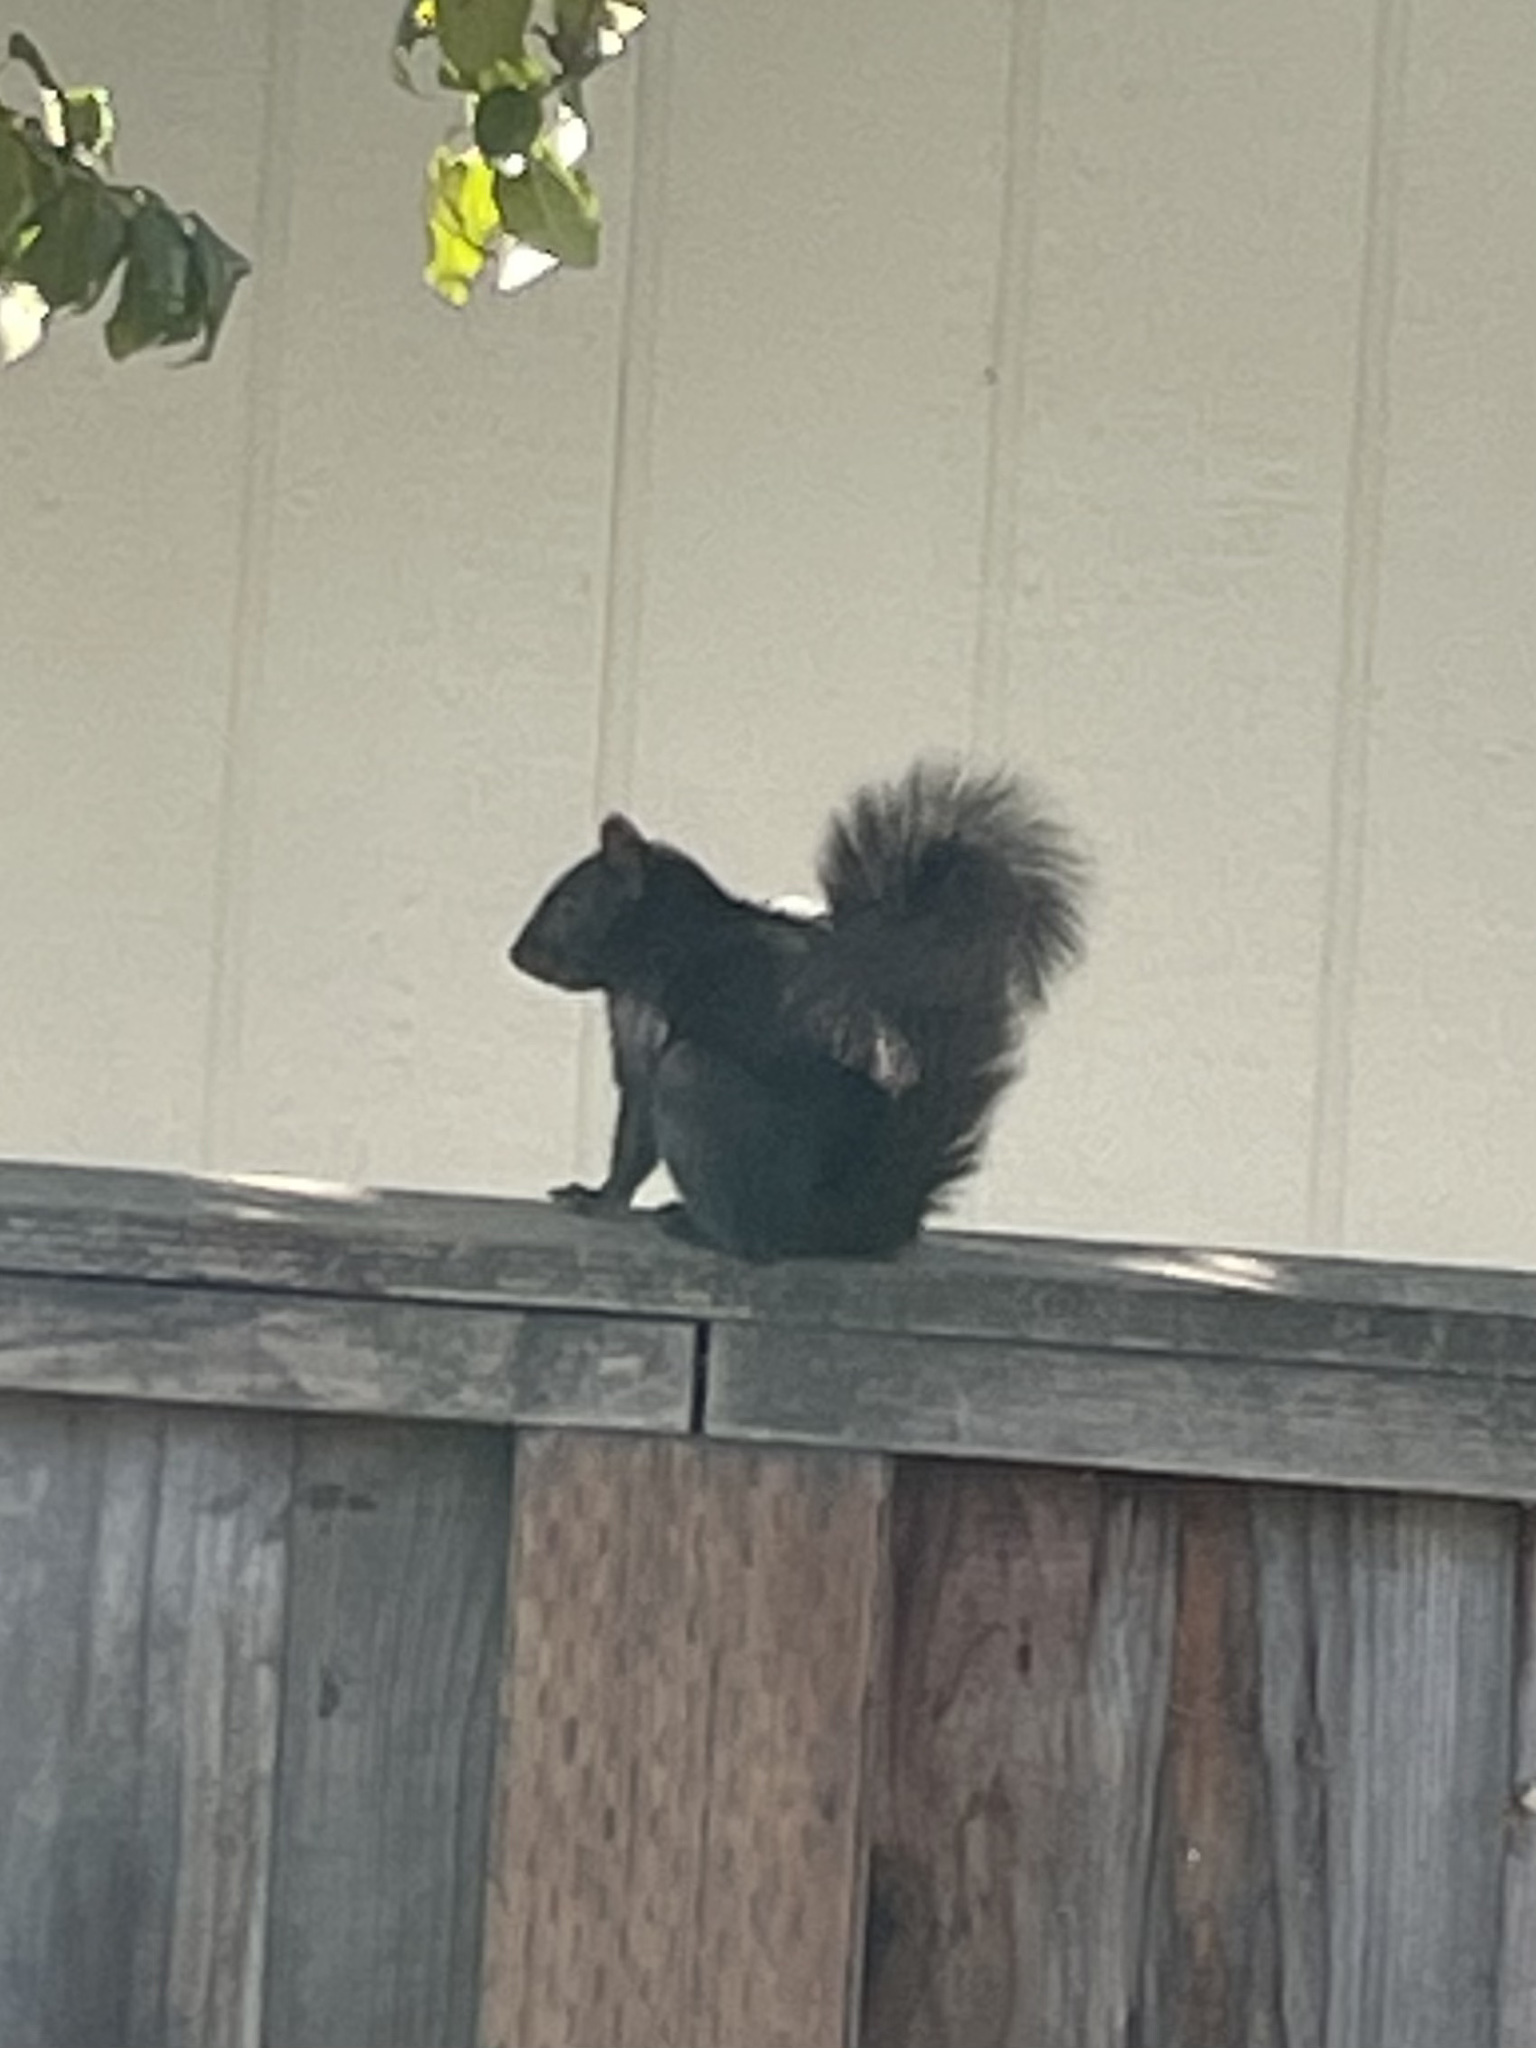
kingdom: Animalia
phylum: Chordata
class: Mammalia
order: Rodentia
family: Sciuridae
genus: Sciurus
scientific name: Sciurus carolinensis
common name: Eastern gray squirrel
